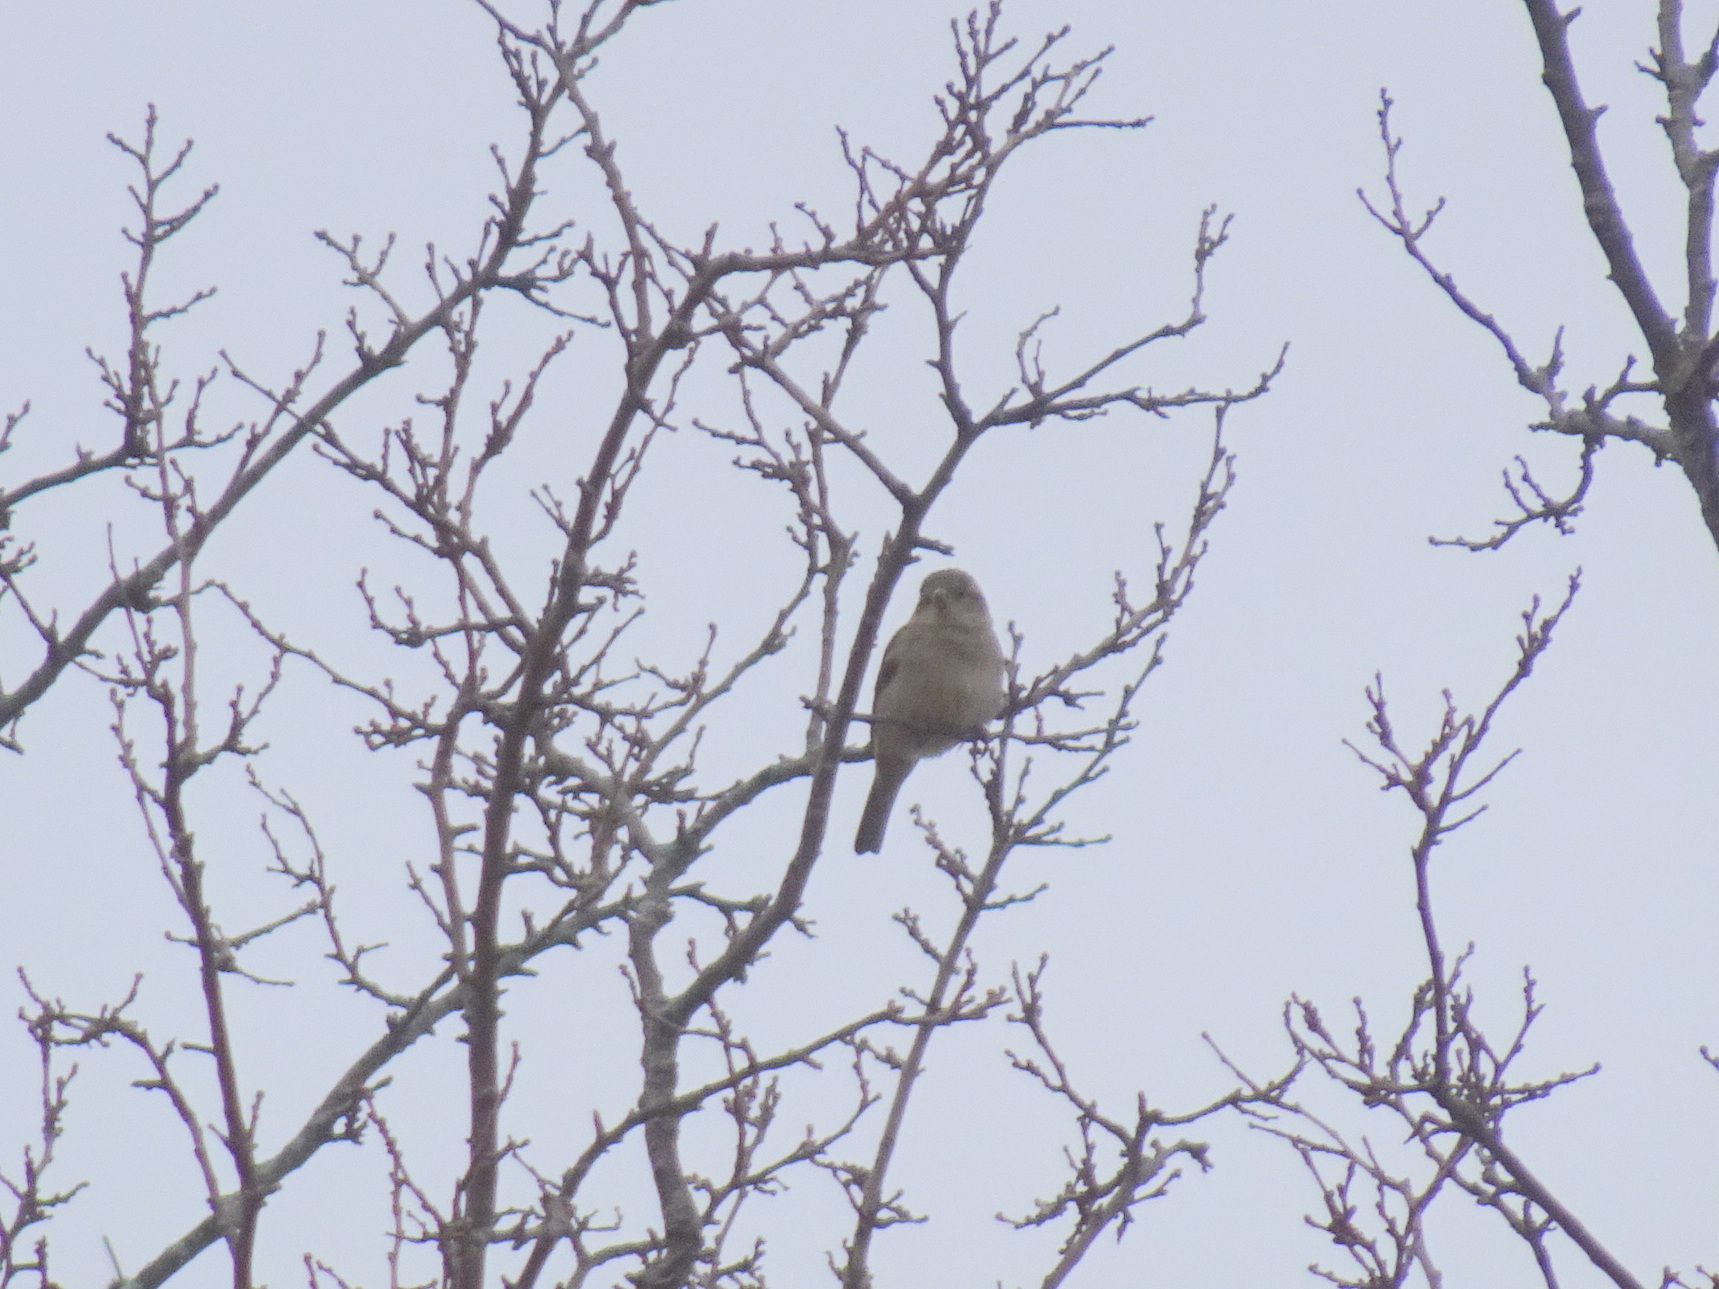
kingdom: Animalia
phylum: Chordata
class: Aves
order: Passeriformes
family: Passeridae
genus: Passer
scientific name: Passer domesticus
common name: House sparrow
